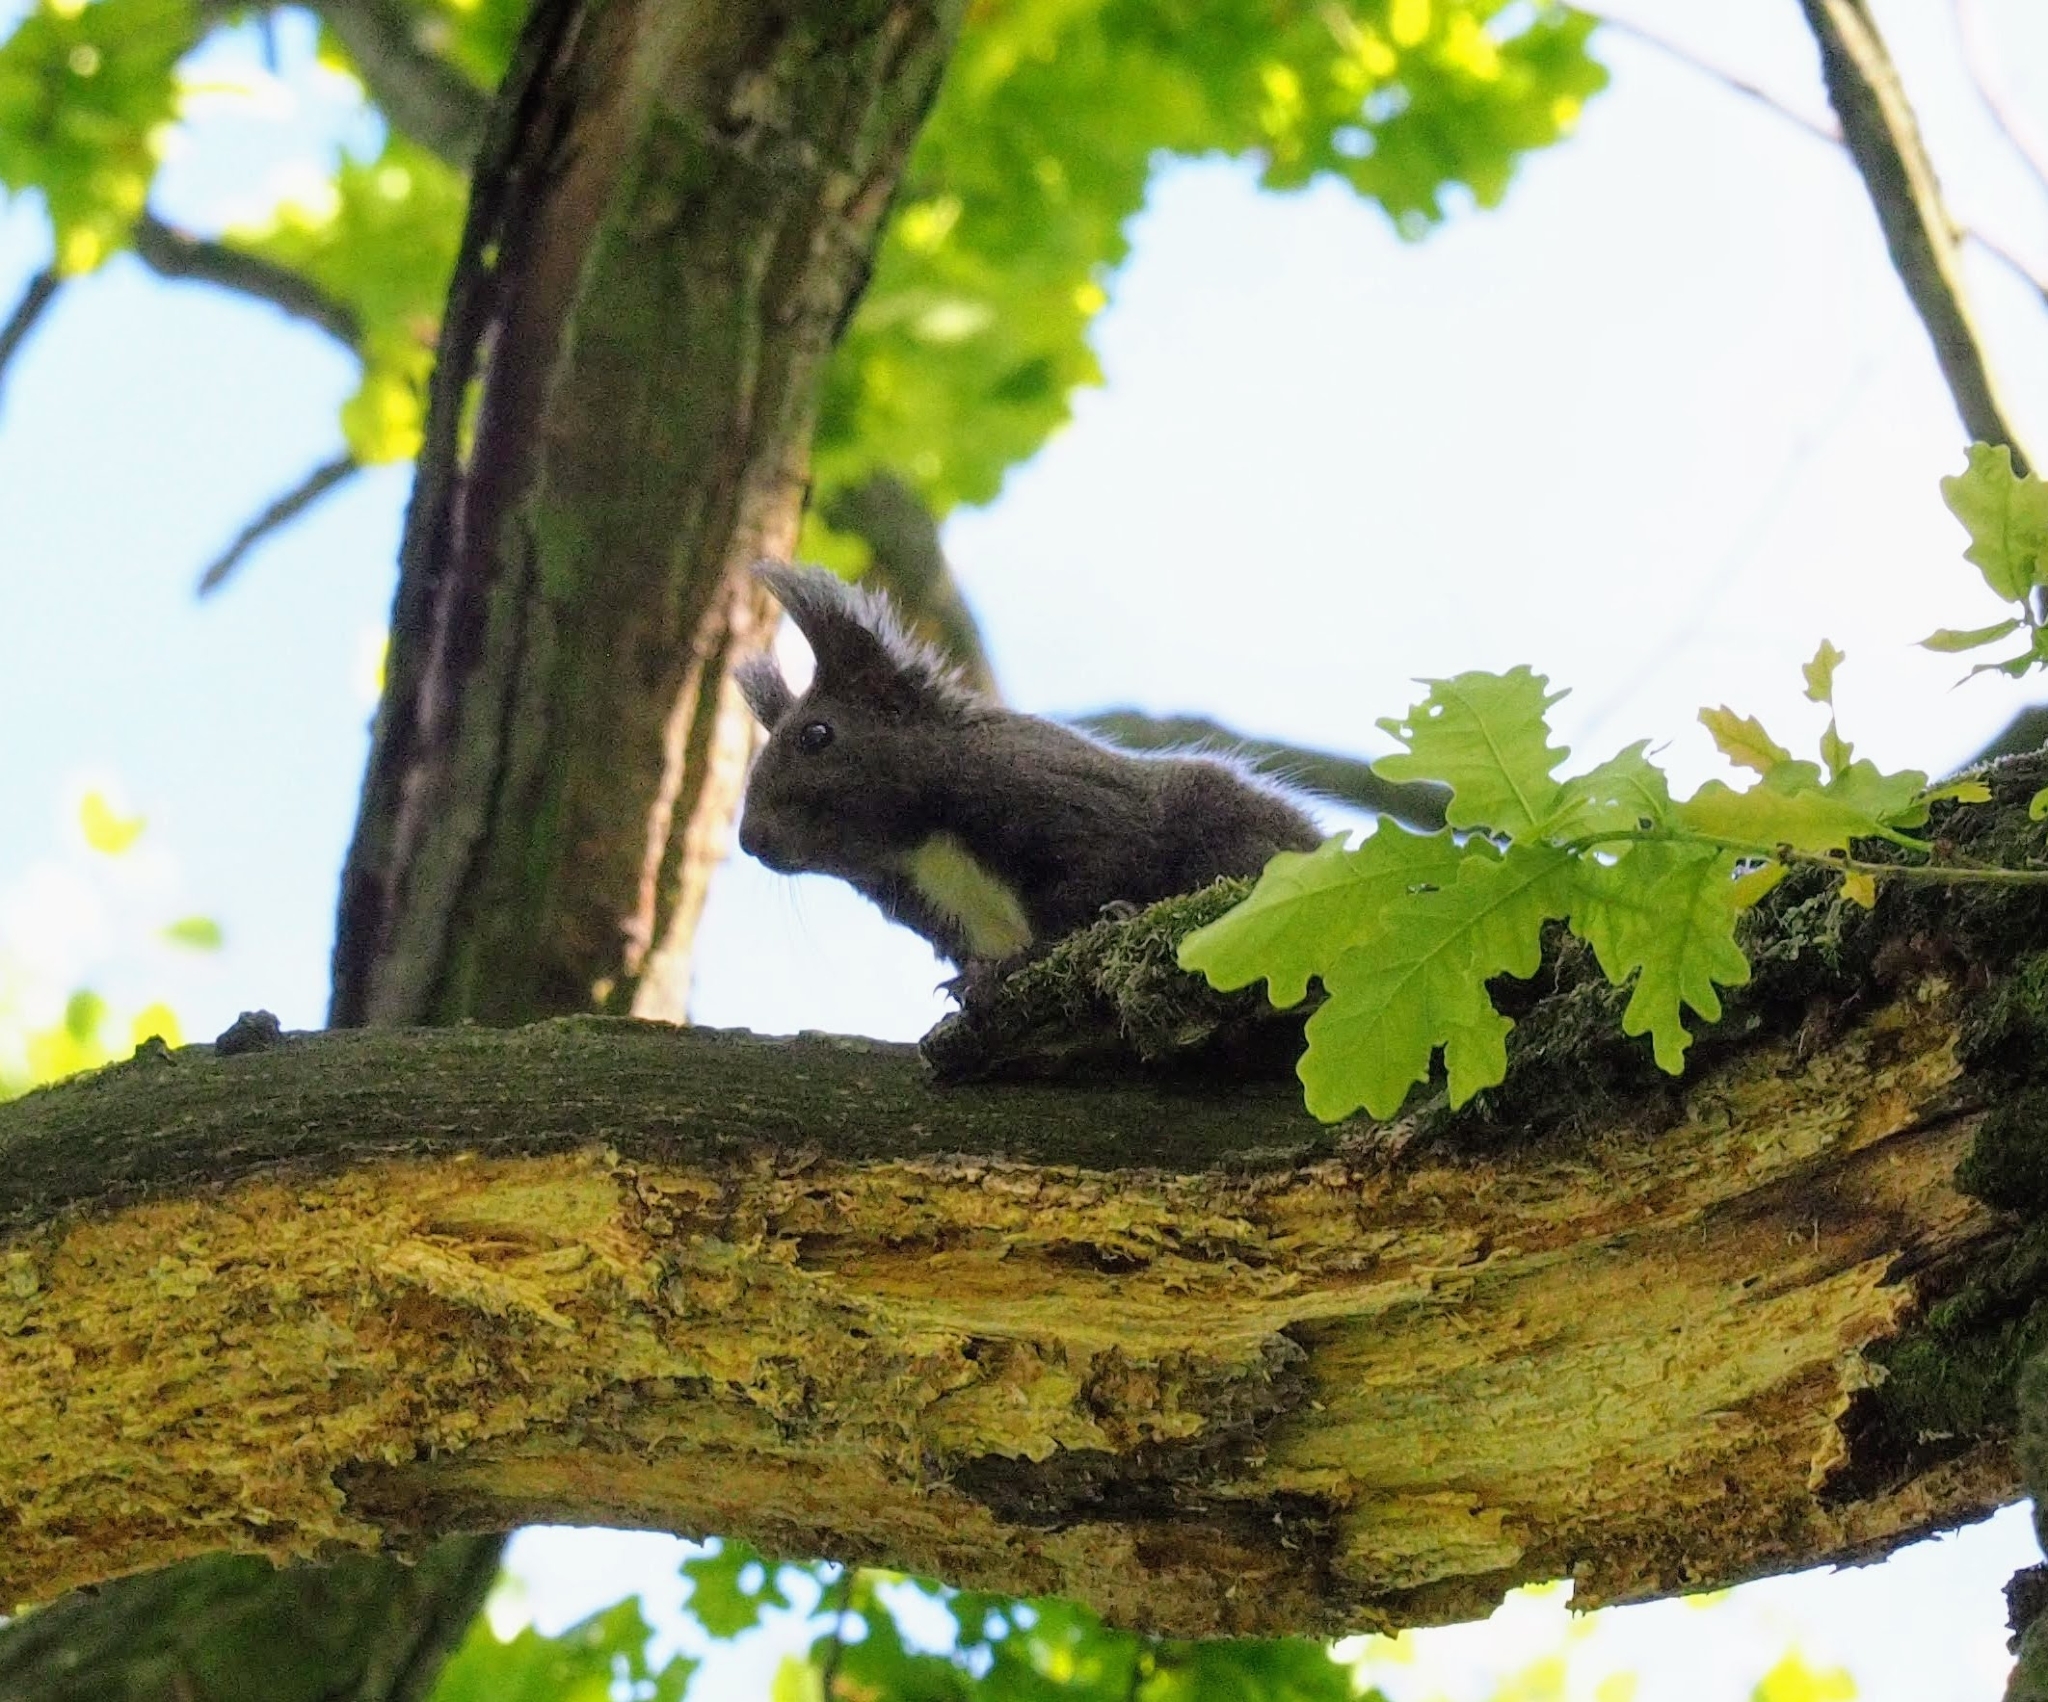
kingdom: Animalia
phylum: Chordata
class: Mammalia
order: Rodentia
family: Sciuridae
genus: Sciurus
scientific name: Sciurus vulgaris
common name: Eurasian red squirrel
